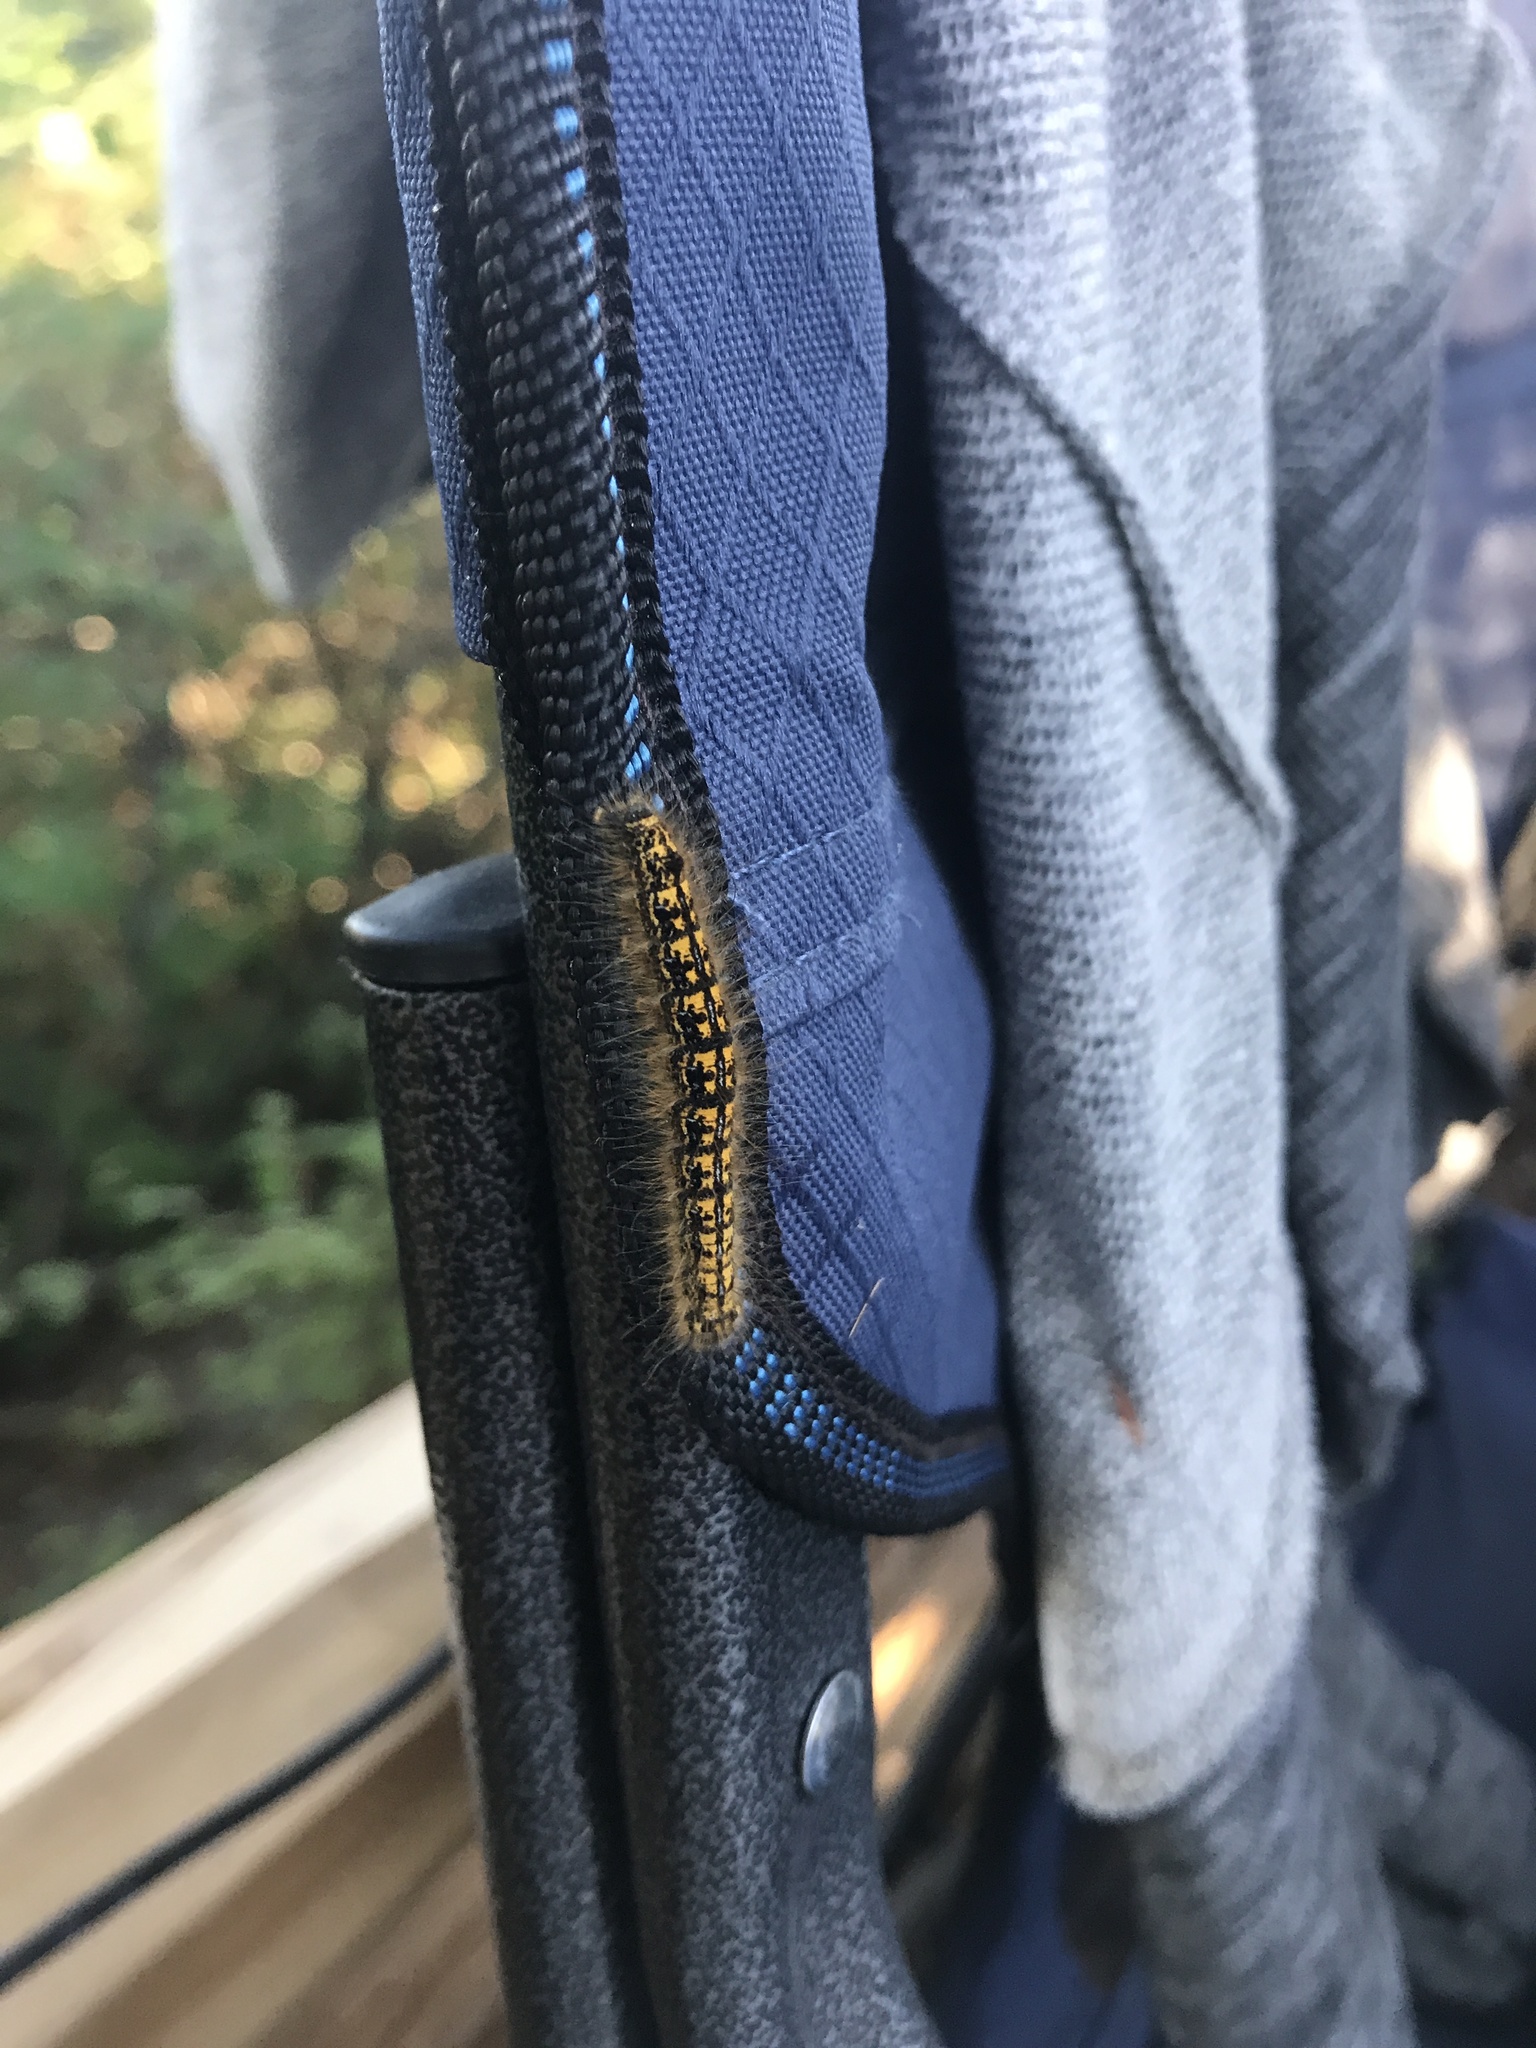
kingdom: Animalia
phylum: Arthropoda
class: Insecta
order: Lepidoptera
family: Lasiocampidae
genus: Malacosoma
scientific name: Malacosoma californica
